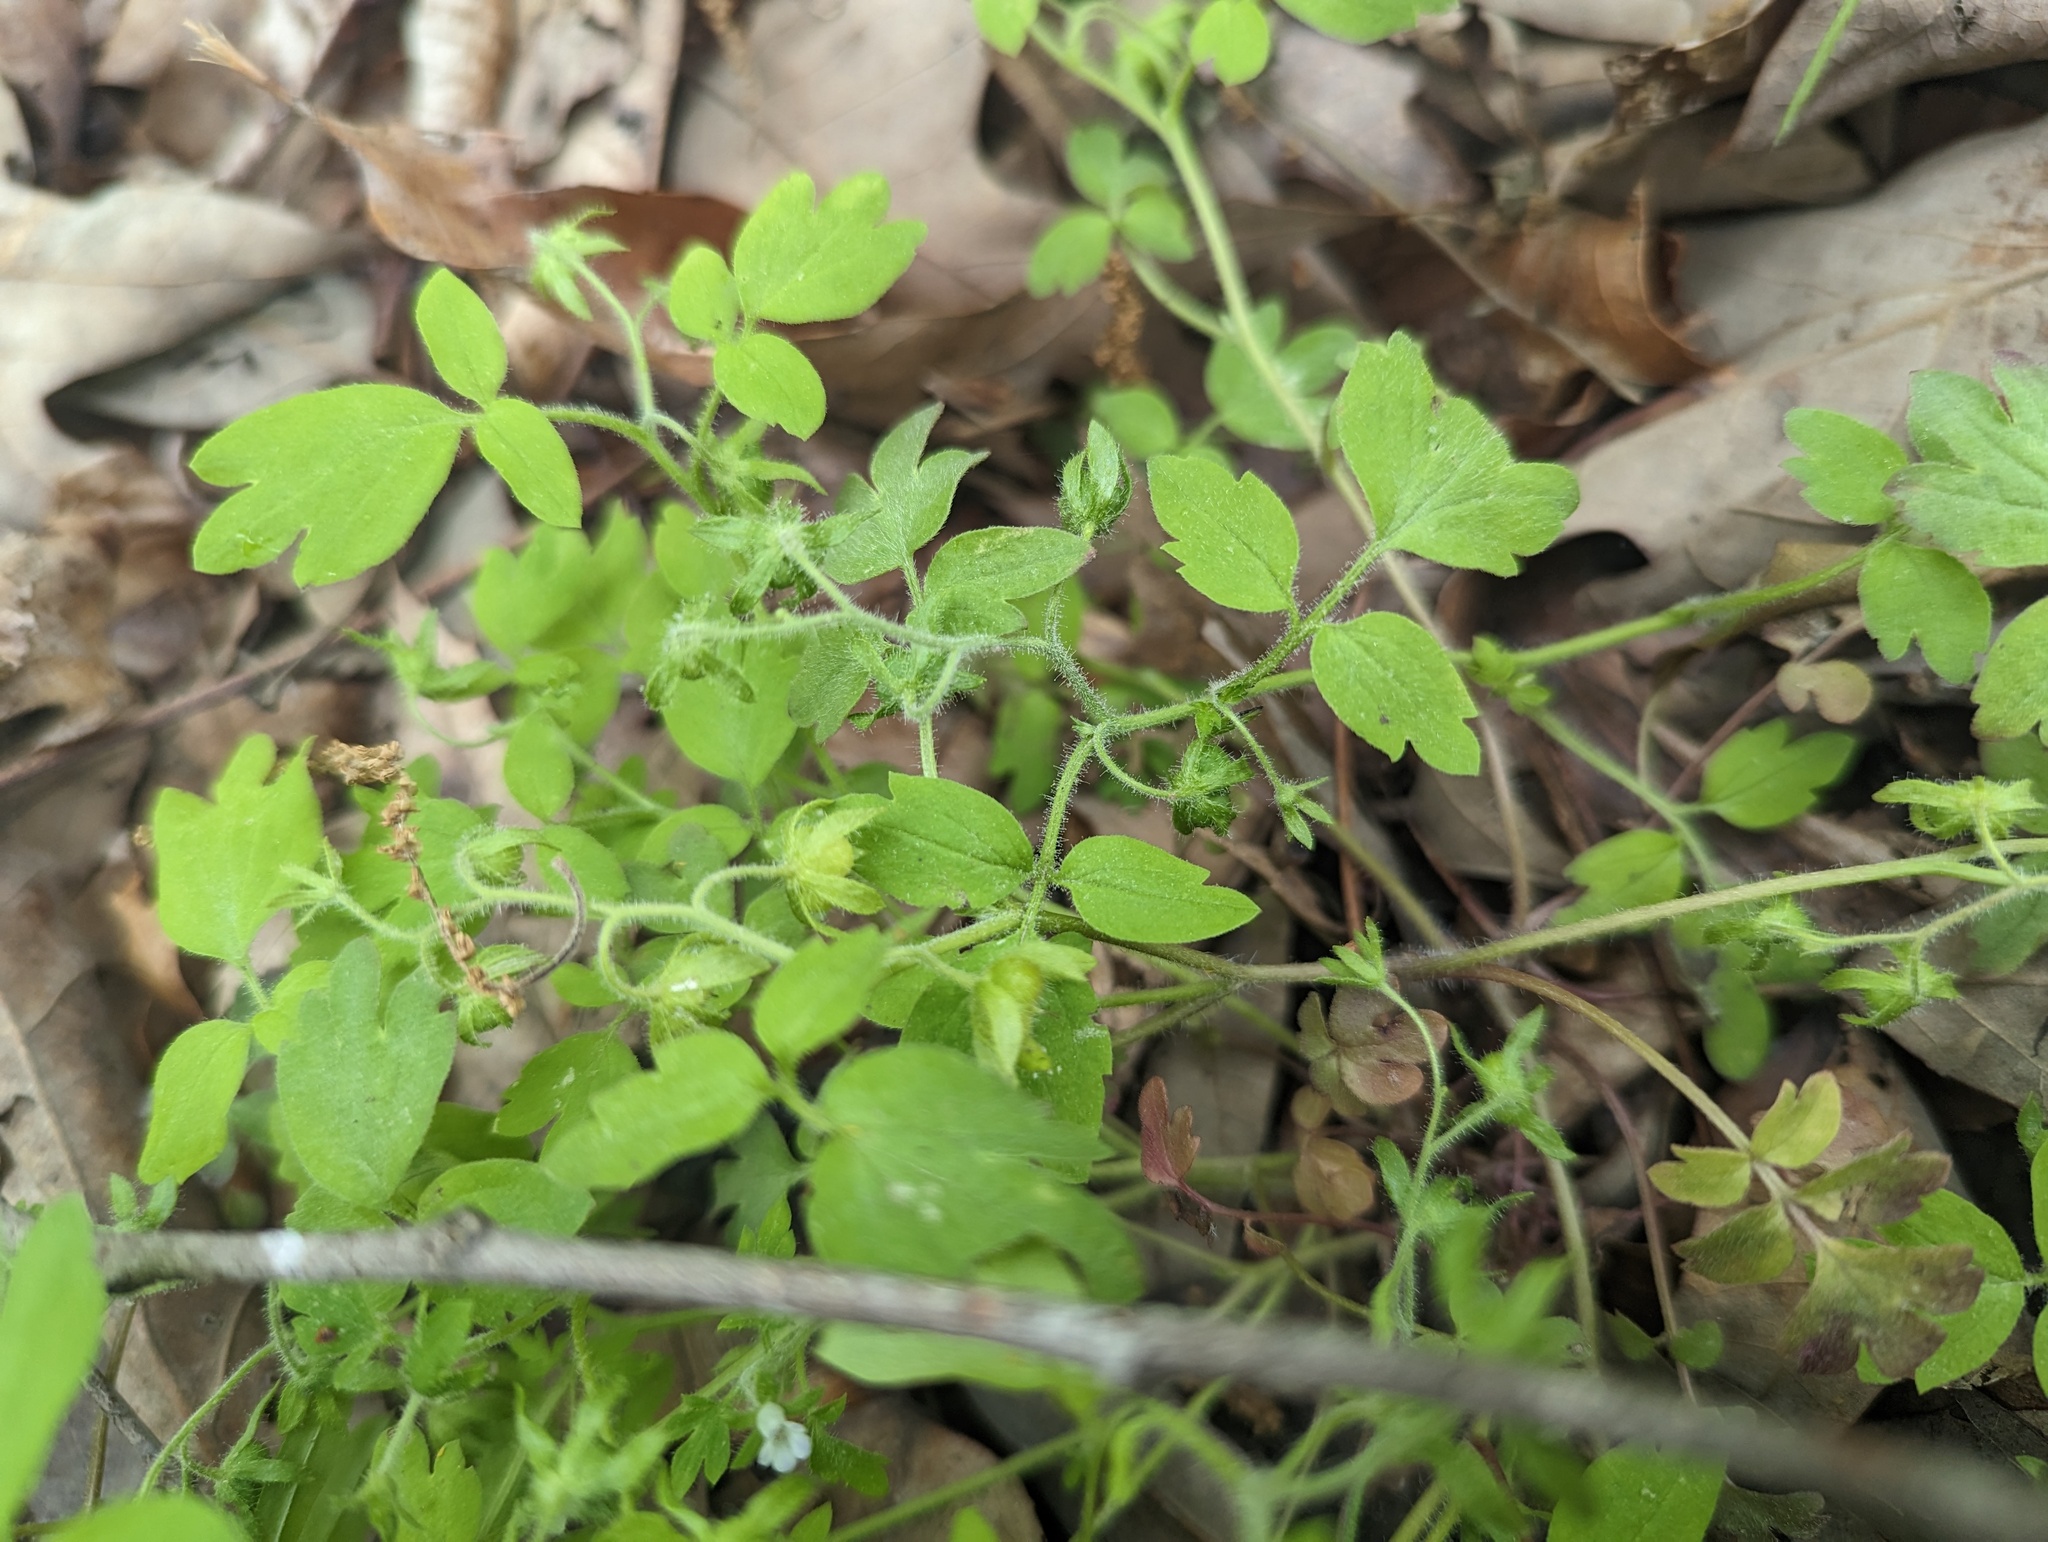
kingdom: Plantae
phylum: Tracheophyta
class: Magnoliopsida
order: Boraginales
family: Hydrophyllaceae
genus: Phacelia
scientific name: Phacelia ranunculacea
